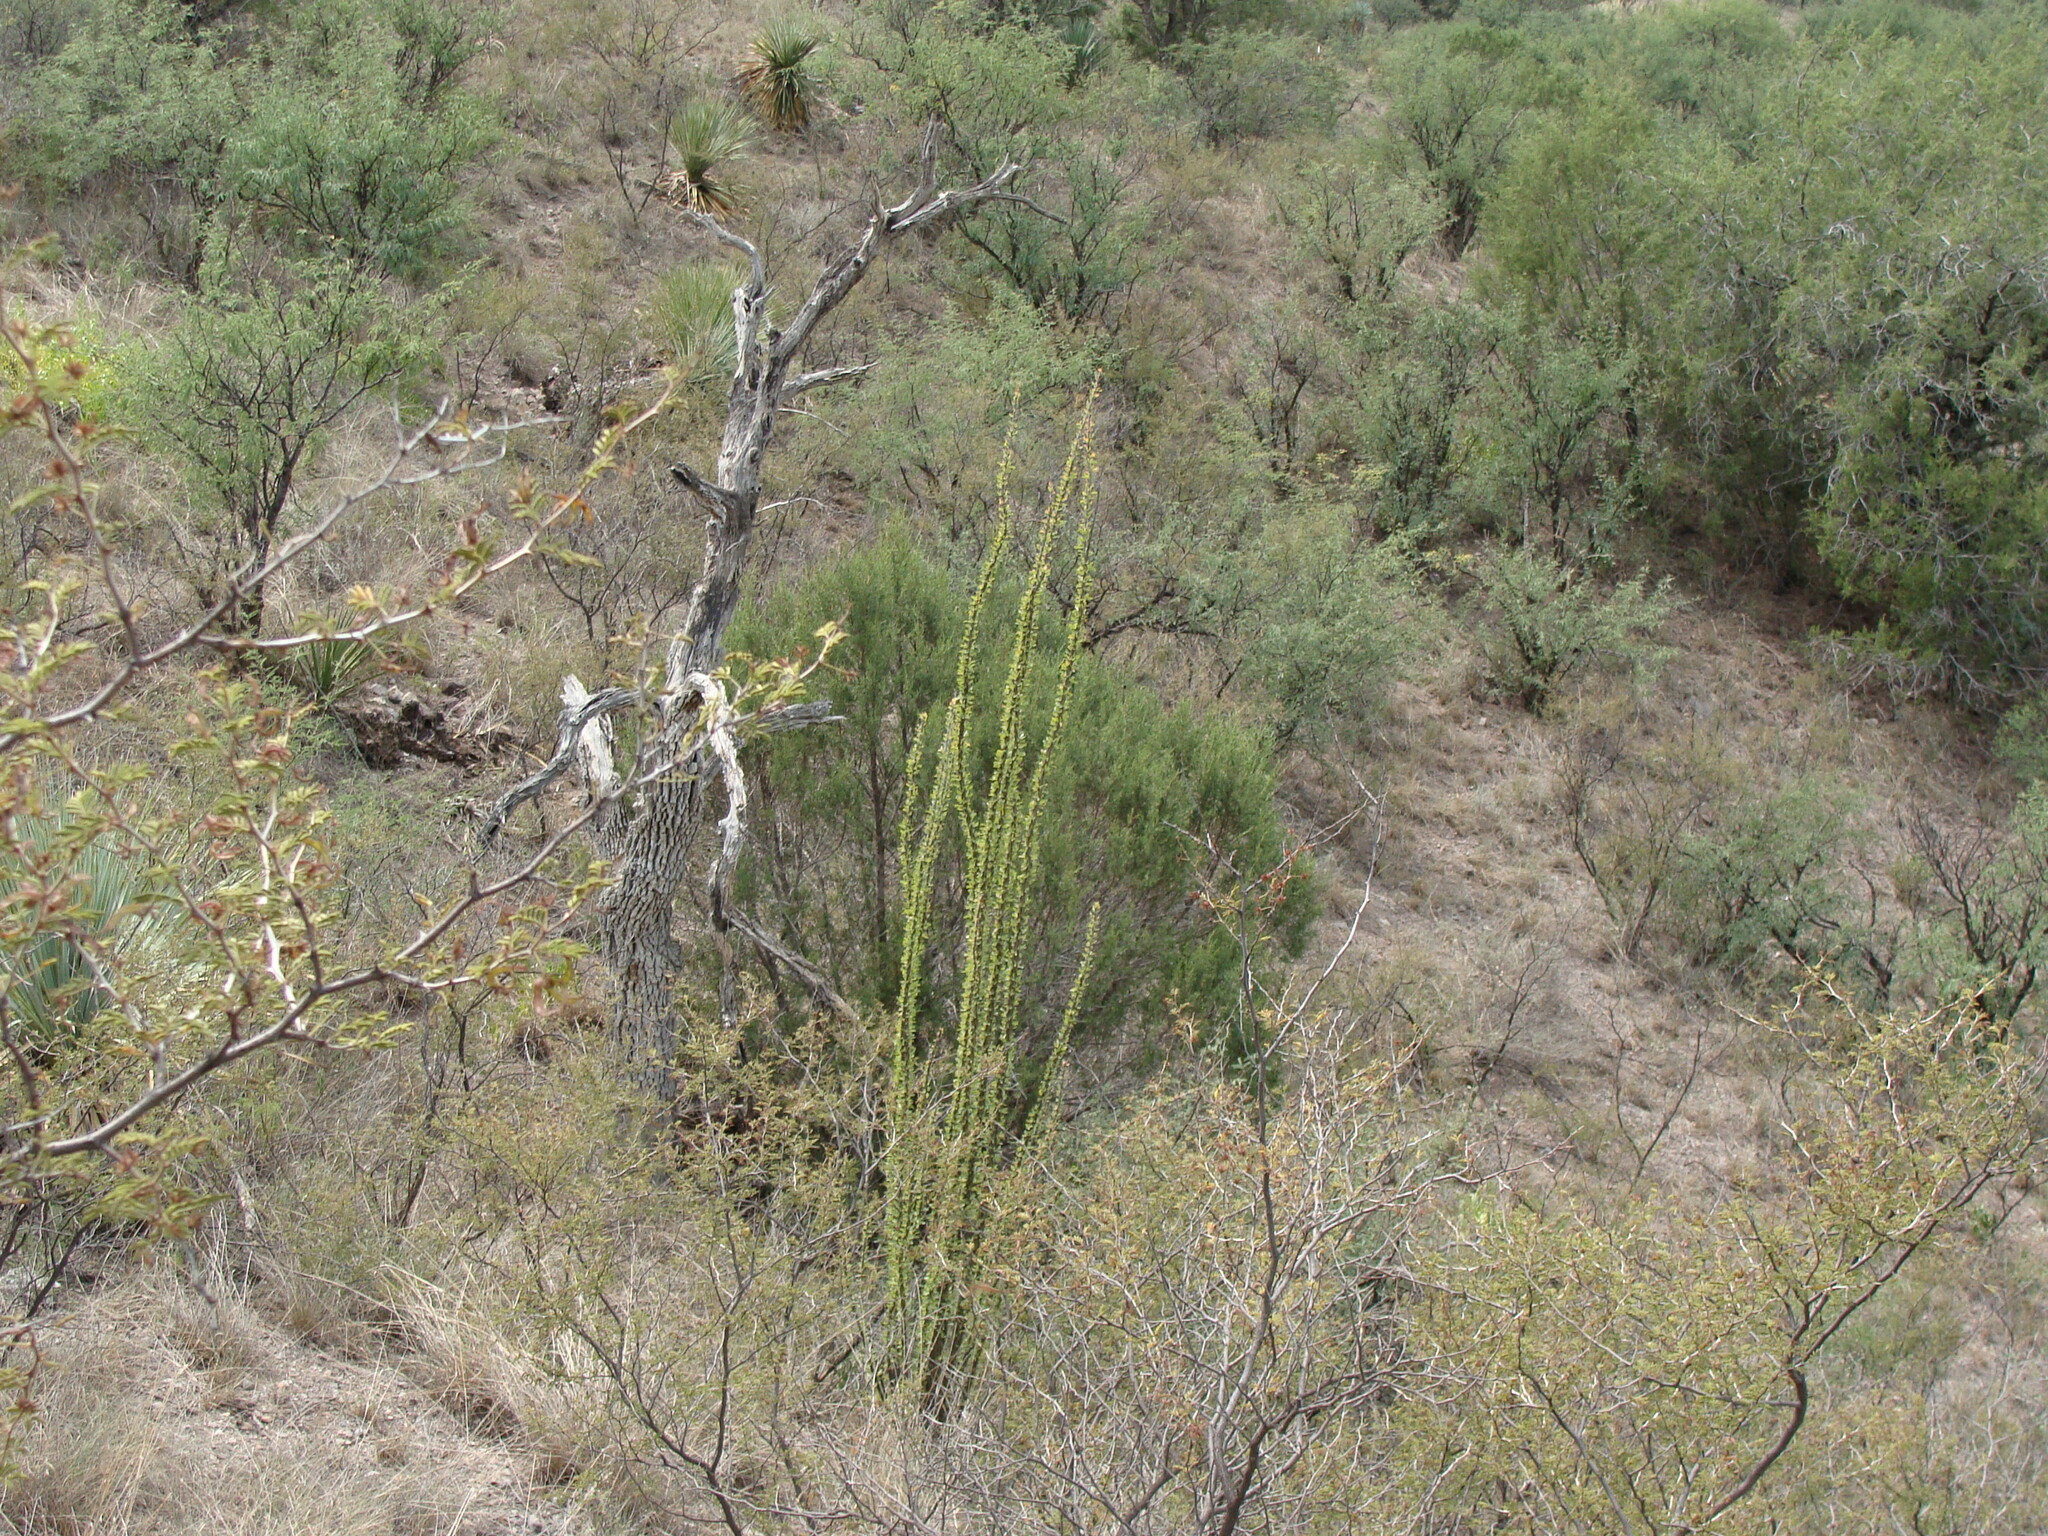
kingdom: Plantae
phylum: Tracheophyta
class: Magnoliopsida
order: Ericales
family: Fouquieriaceae
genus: Fouquieria
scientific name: Fouquieria splendens
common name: Vine-cactus
